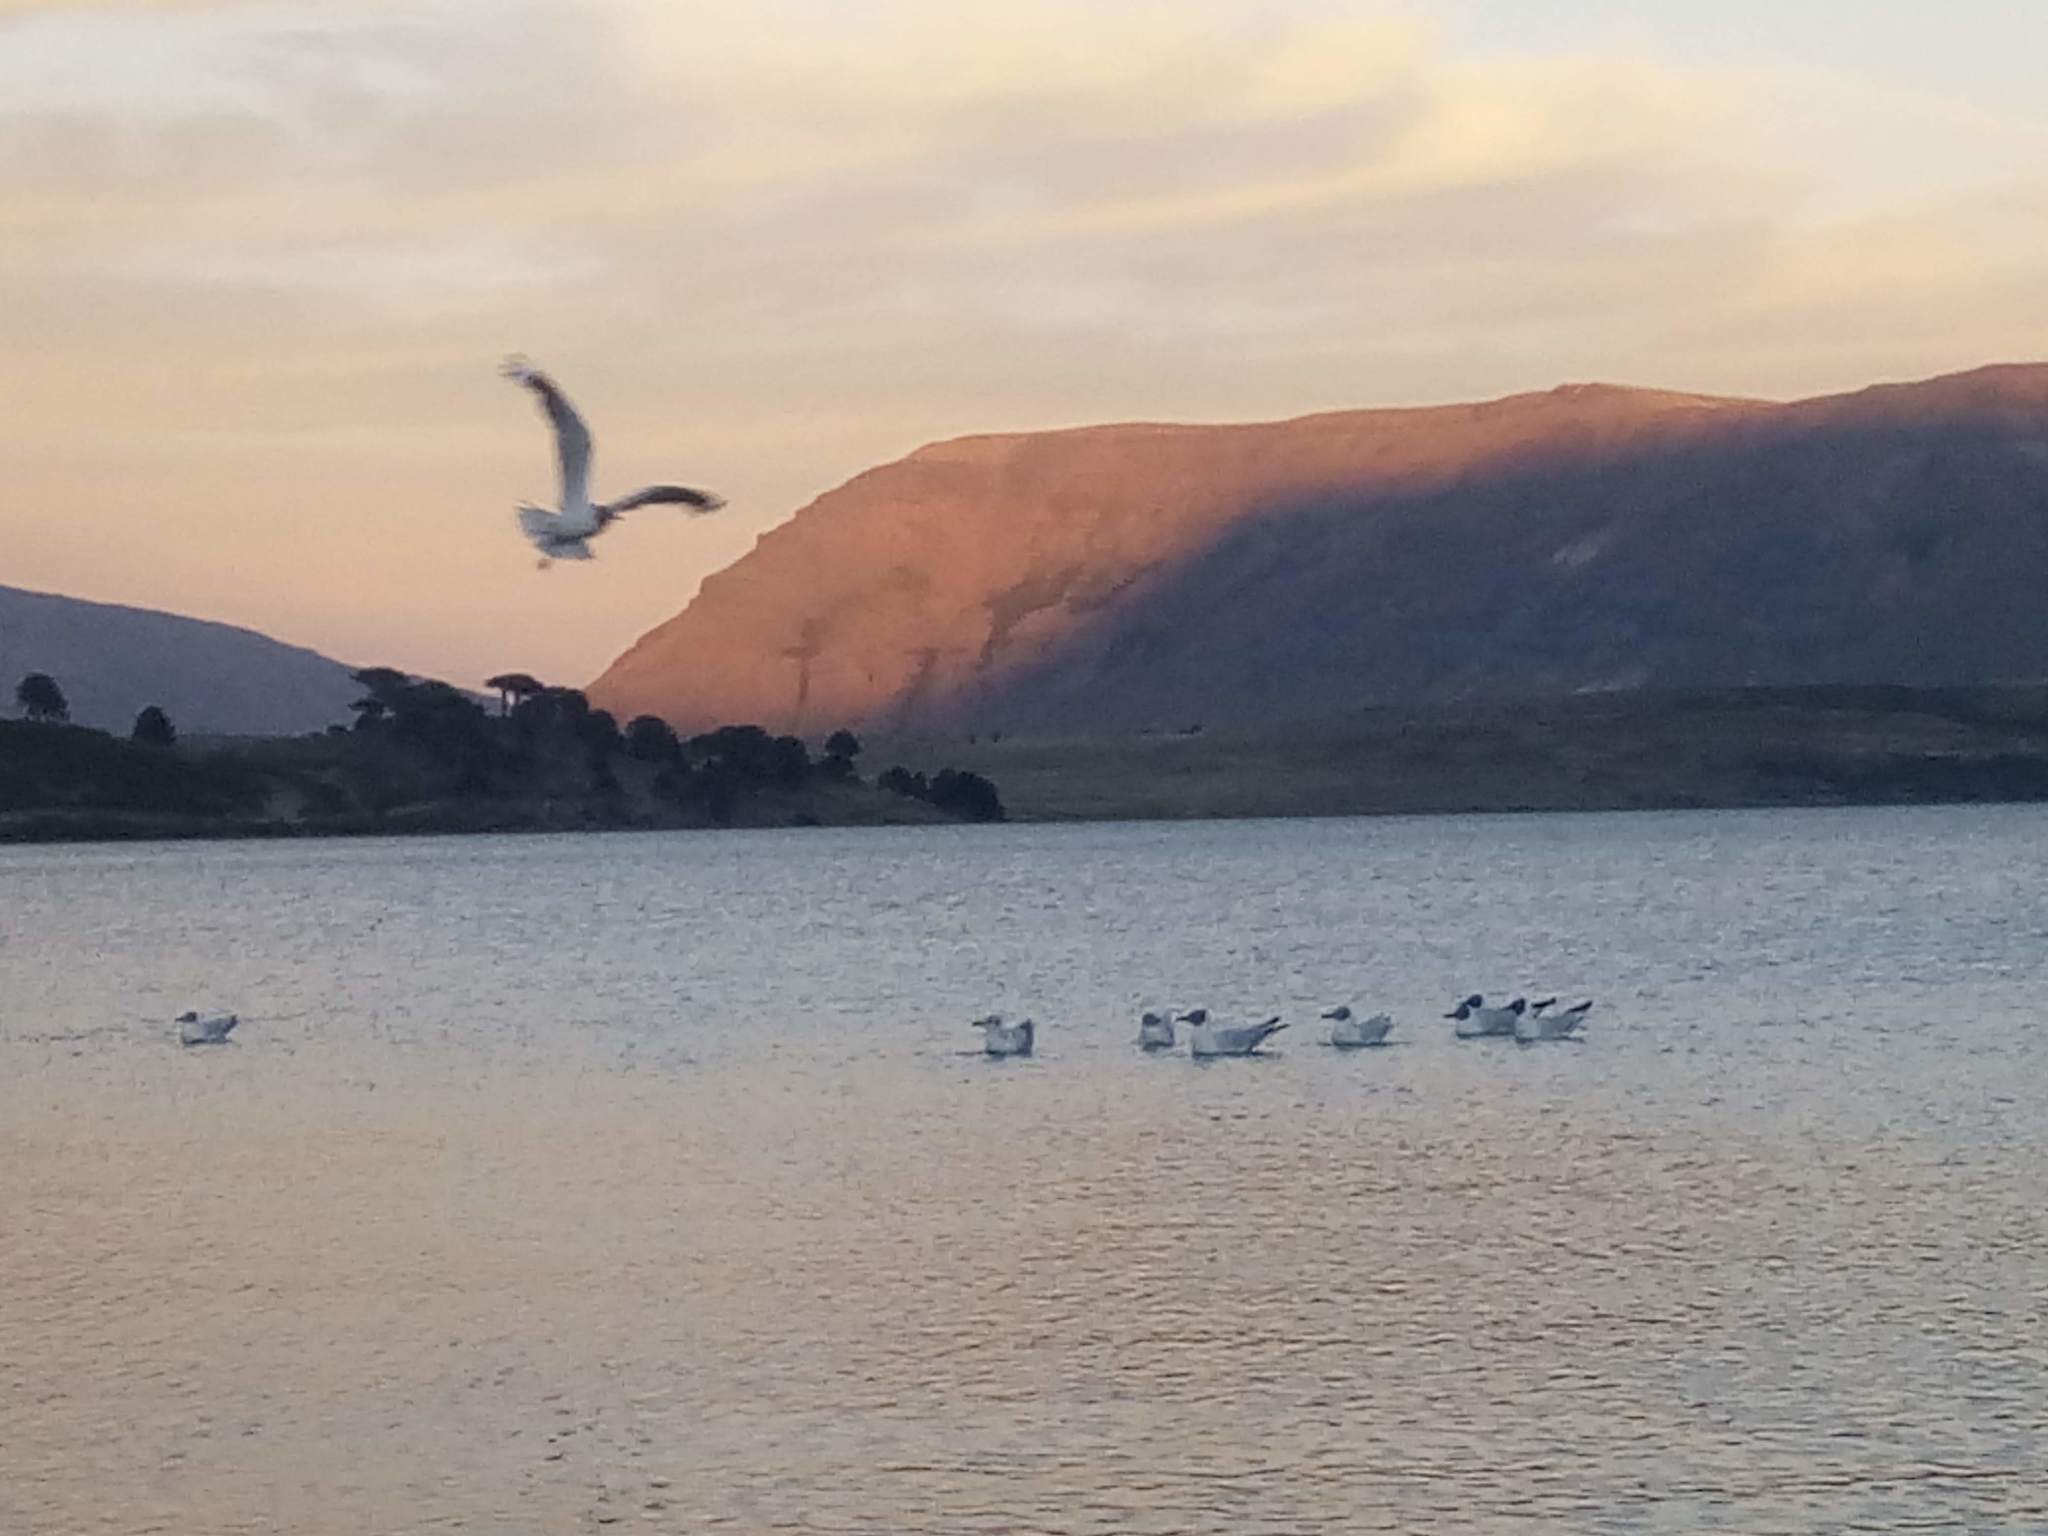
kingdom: Animalia
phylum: Chordata
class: Aves
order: Charadriiformes
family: Laridae
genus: Chroicocephalus
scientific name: Chroicocephalus serranus
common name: Andean gull
